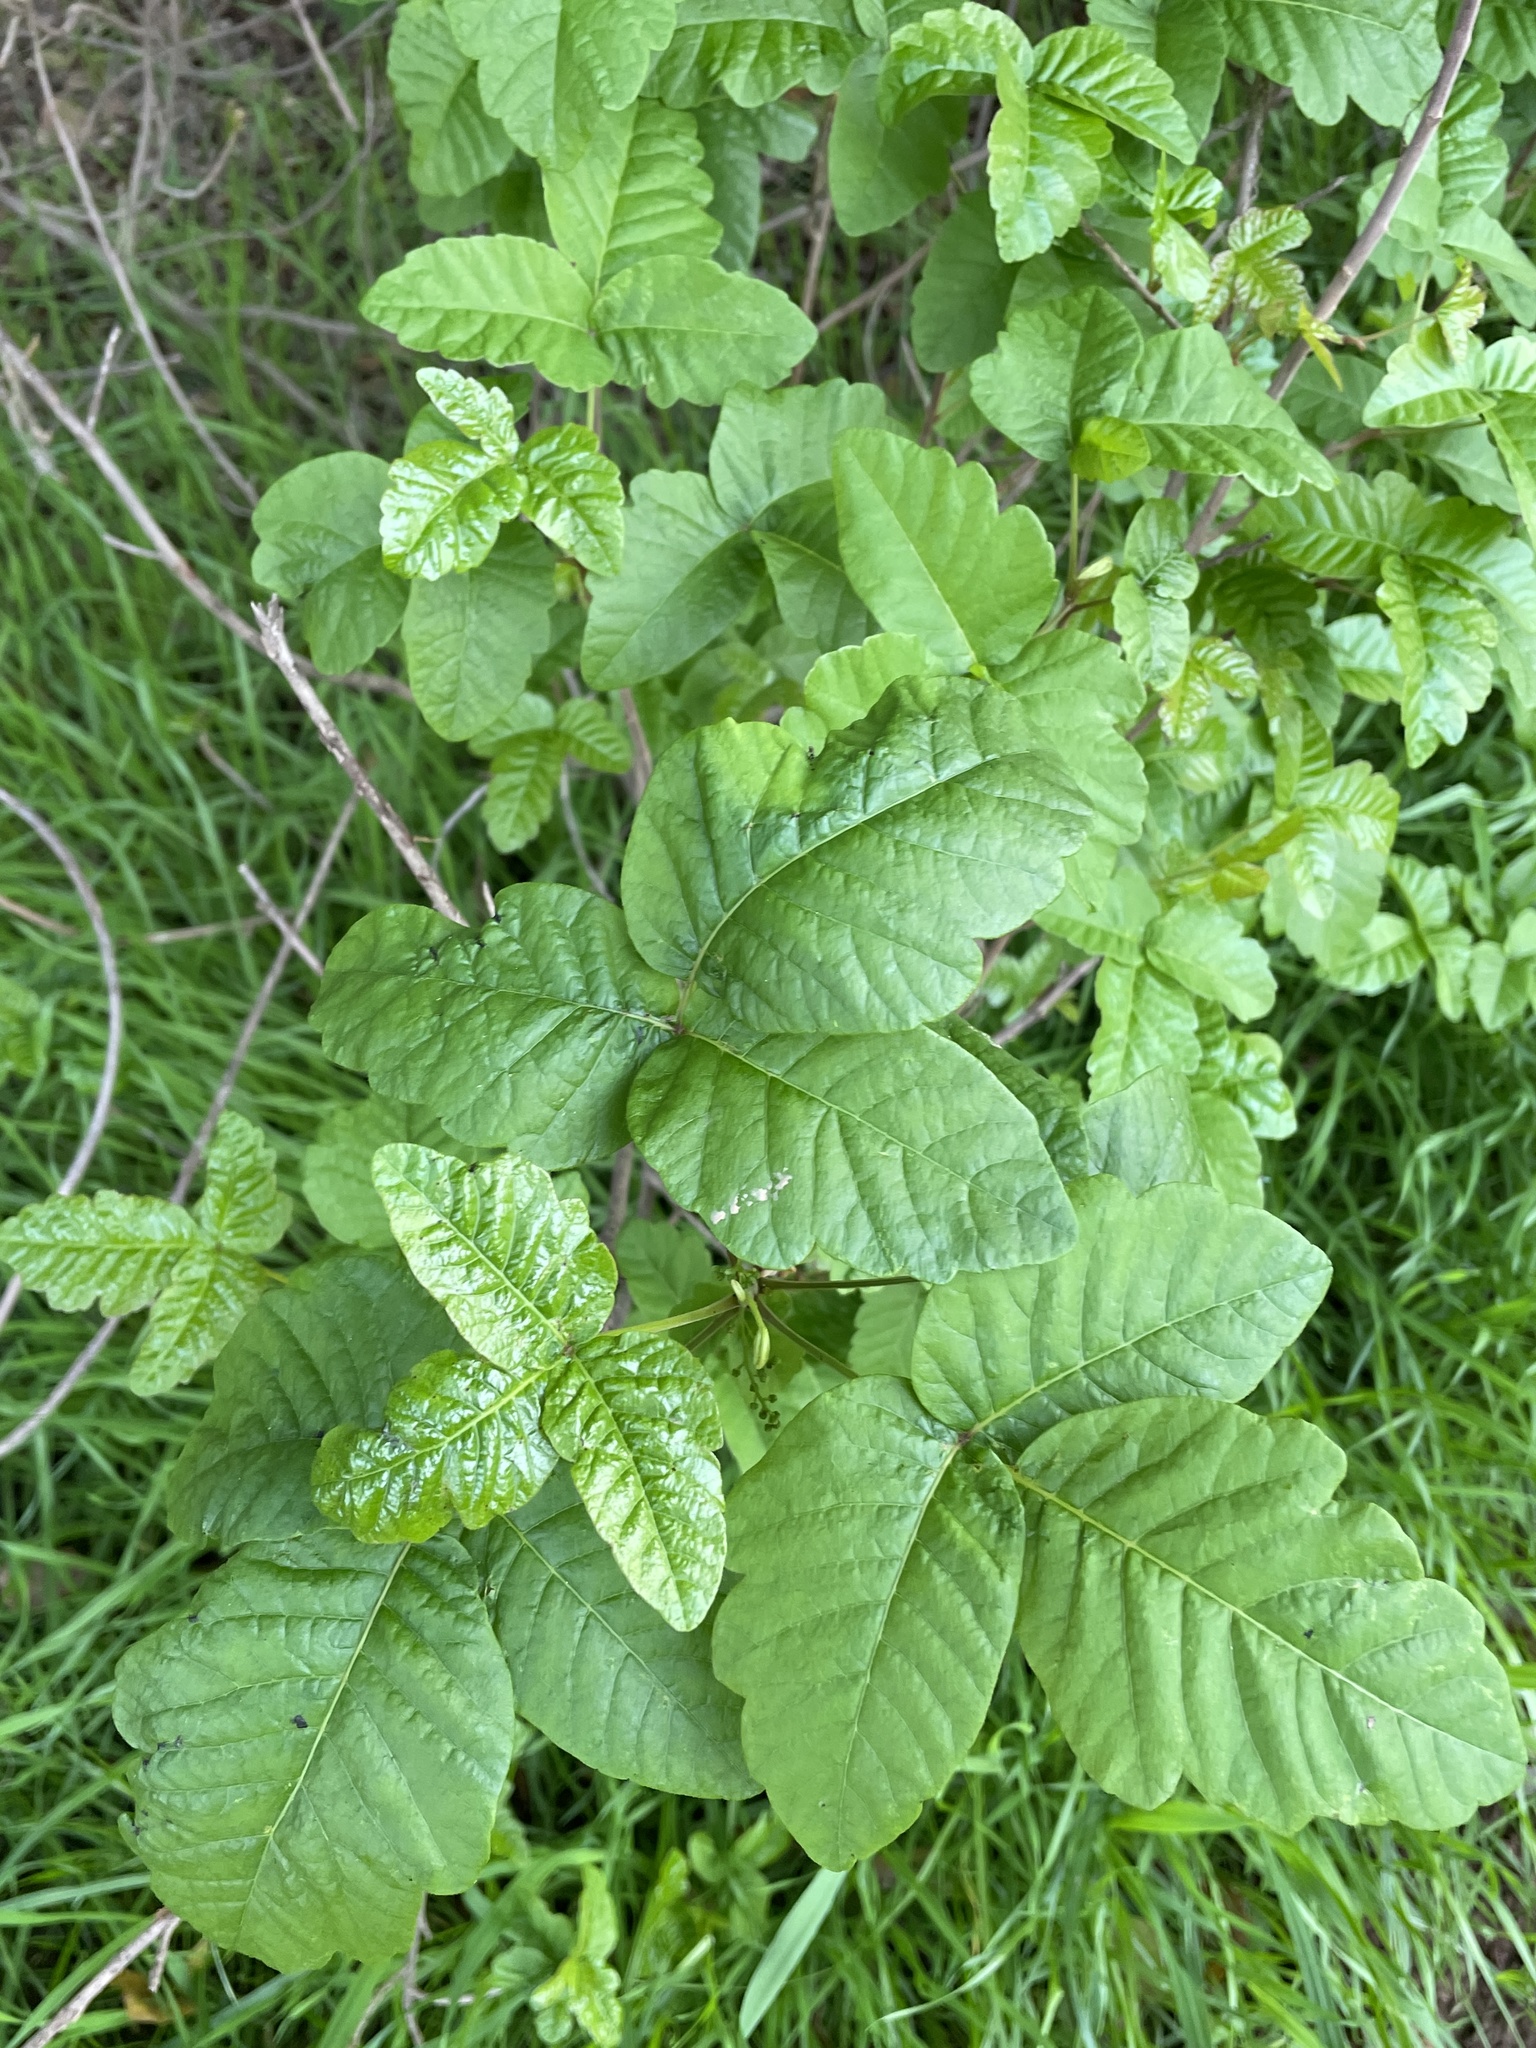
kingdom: Plantae
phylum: Tracheophyta
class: Magnoliopsida
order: Sapindales
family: Anacardiaceae
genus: Toxicodendron
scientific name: Toxicodendron diversilobum
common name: Pacific poison-oak
